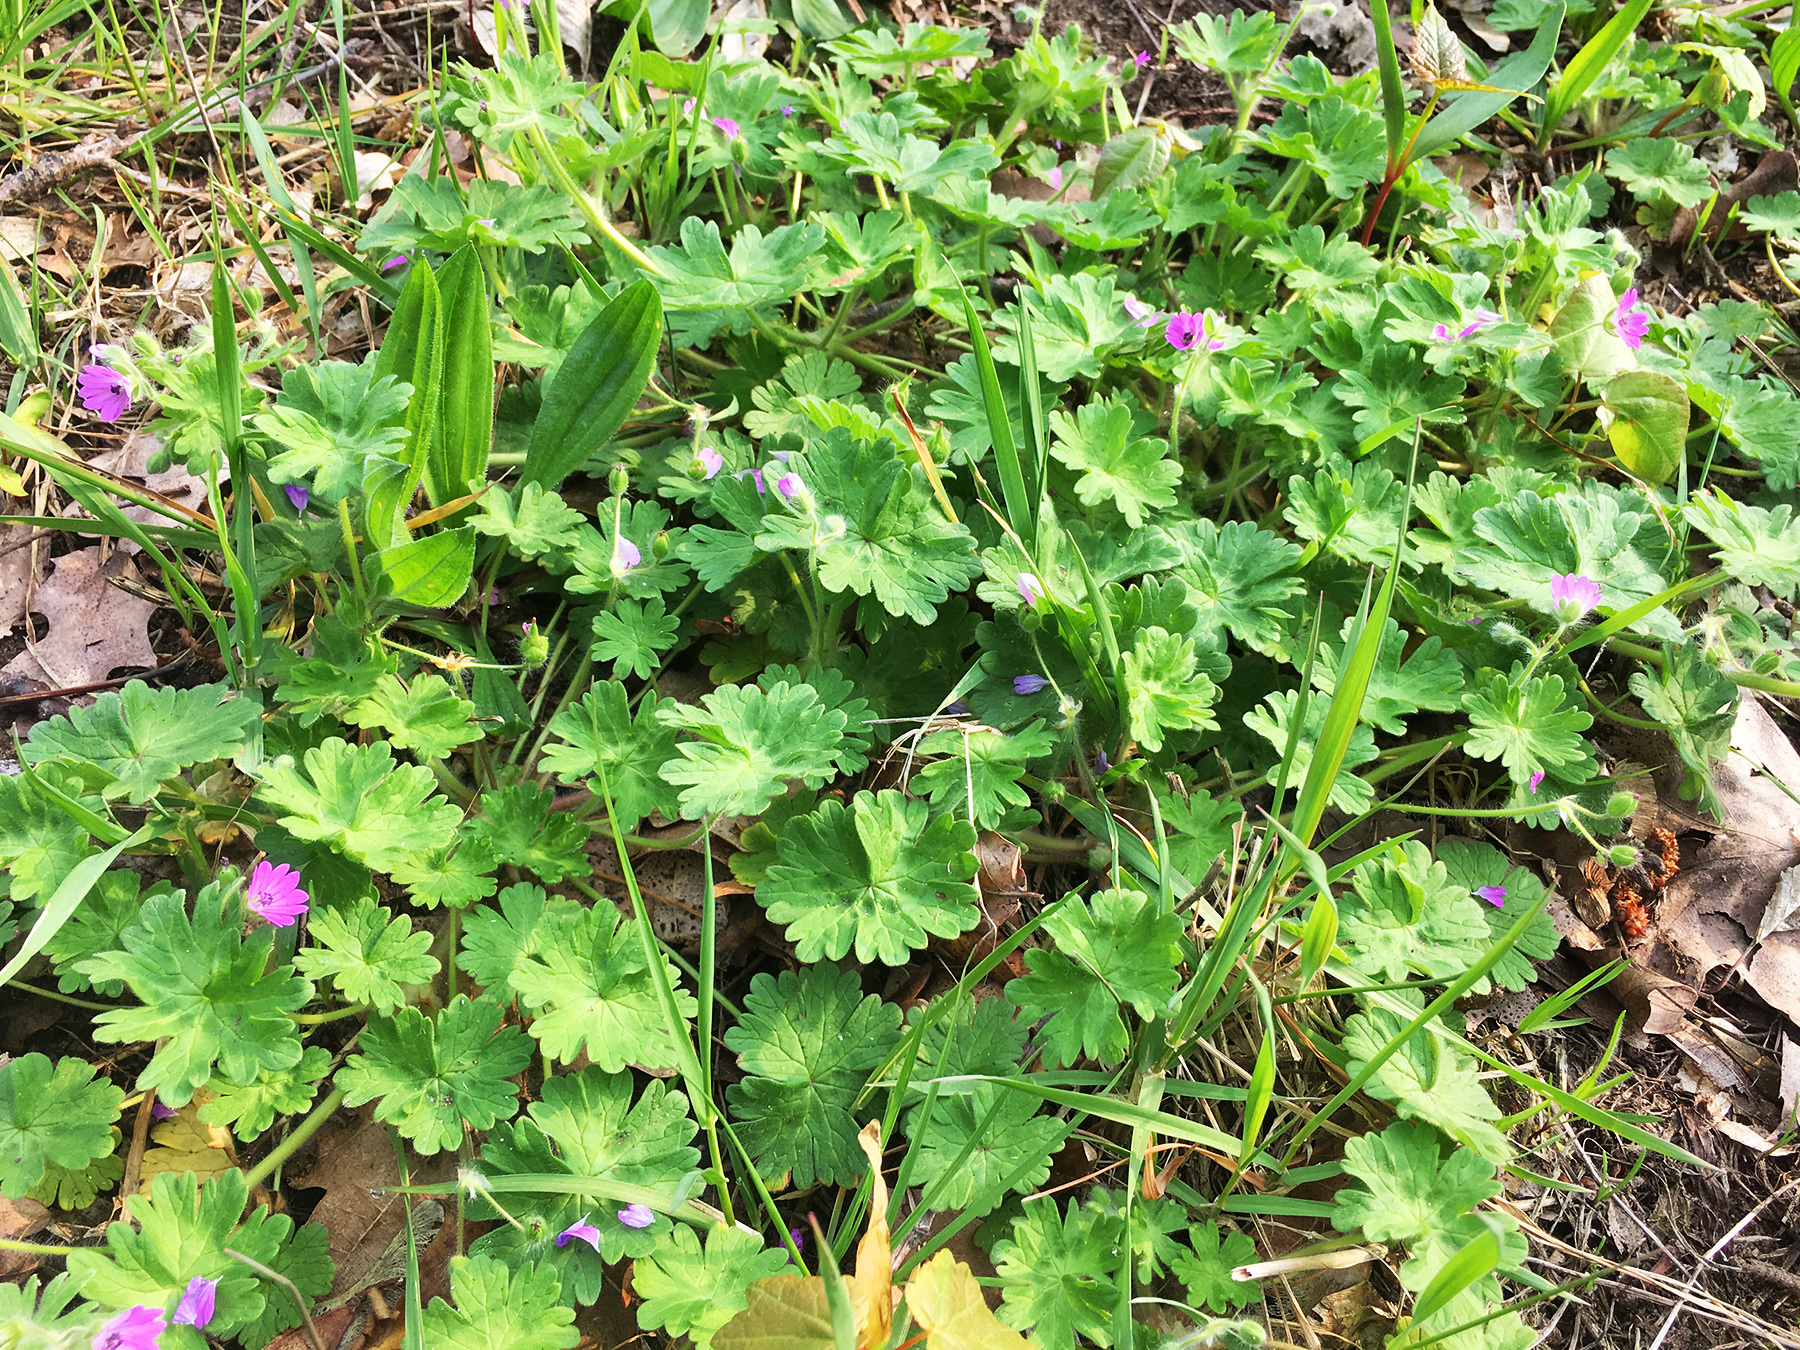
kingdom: Plantae
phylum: Tracheophyta
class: Magnoliopsida
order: Geraniales
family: Geraniaceae
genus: Geranium
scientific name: Geranium molle
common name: Dove's-foot crane's-bill
